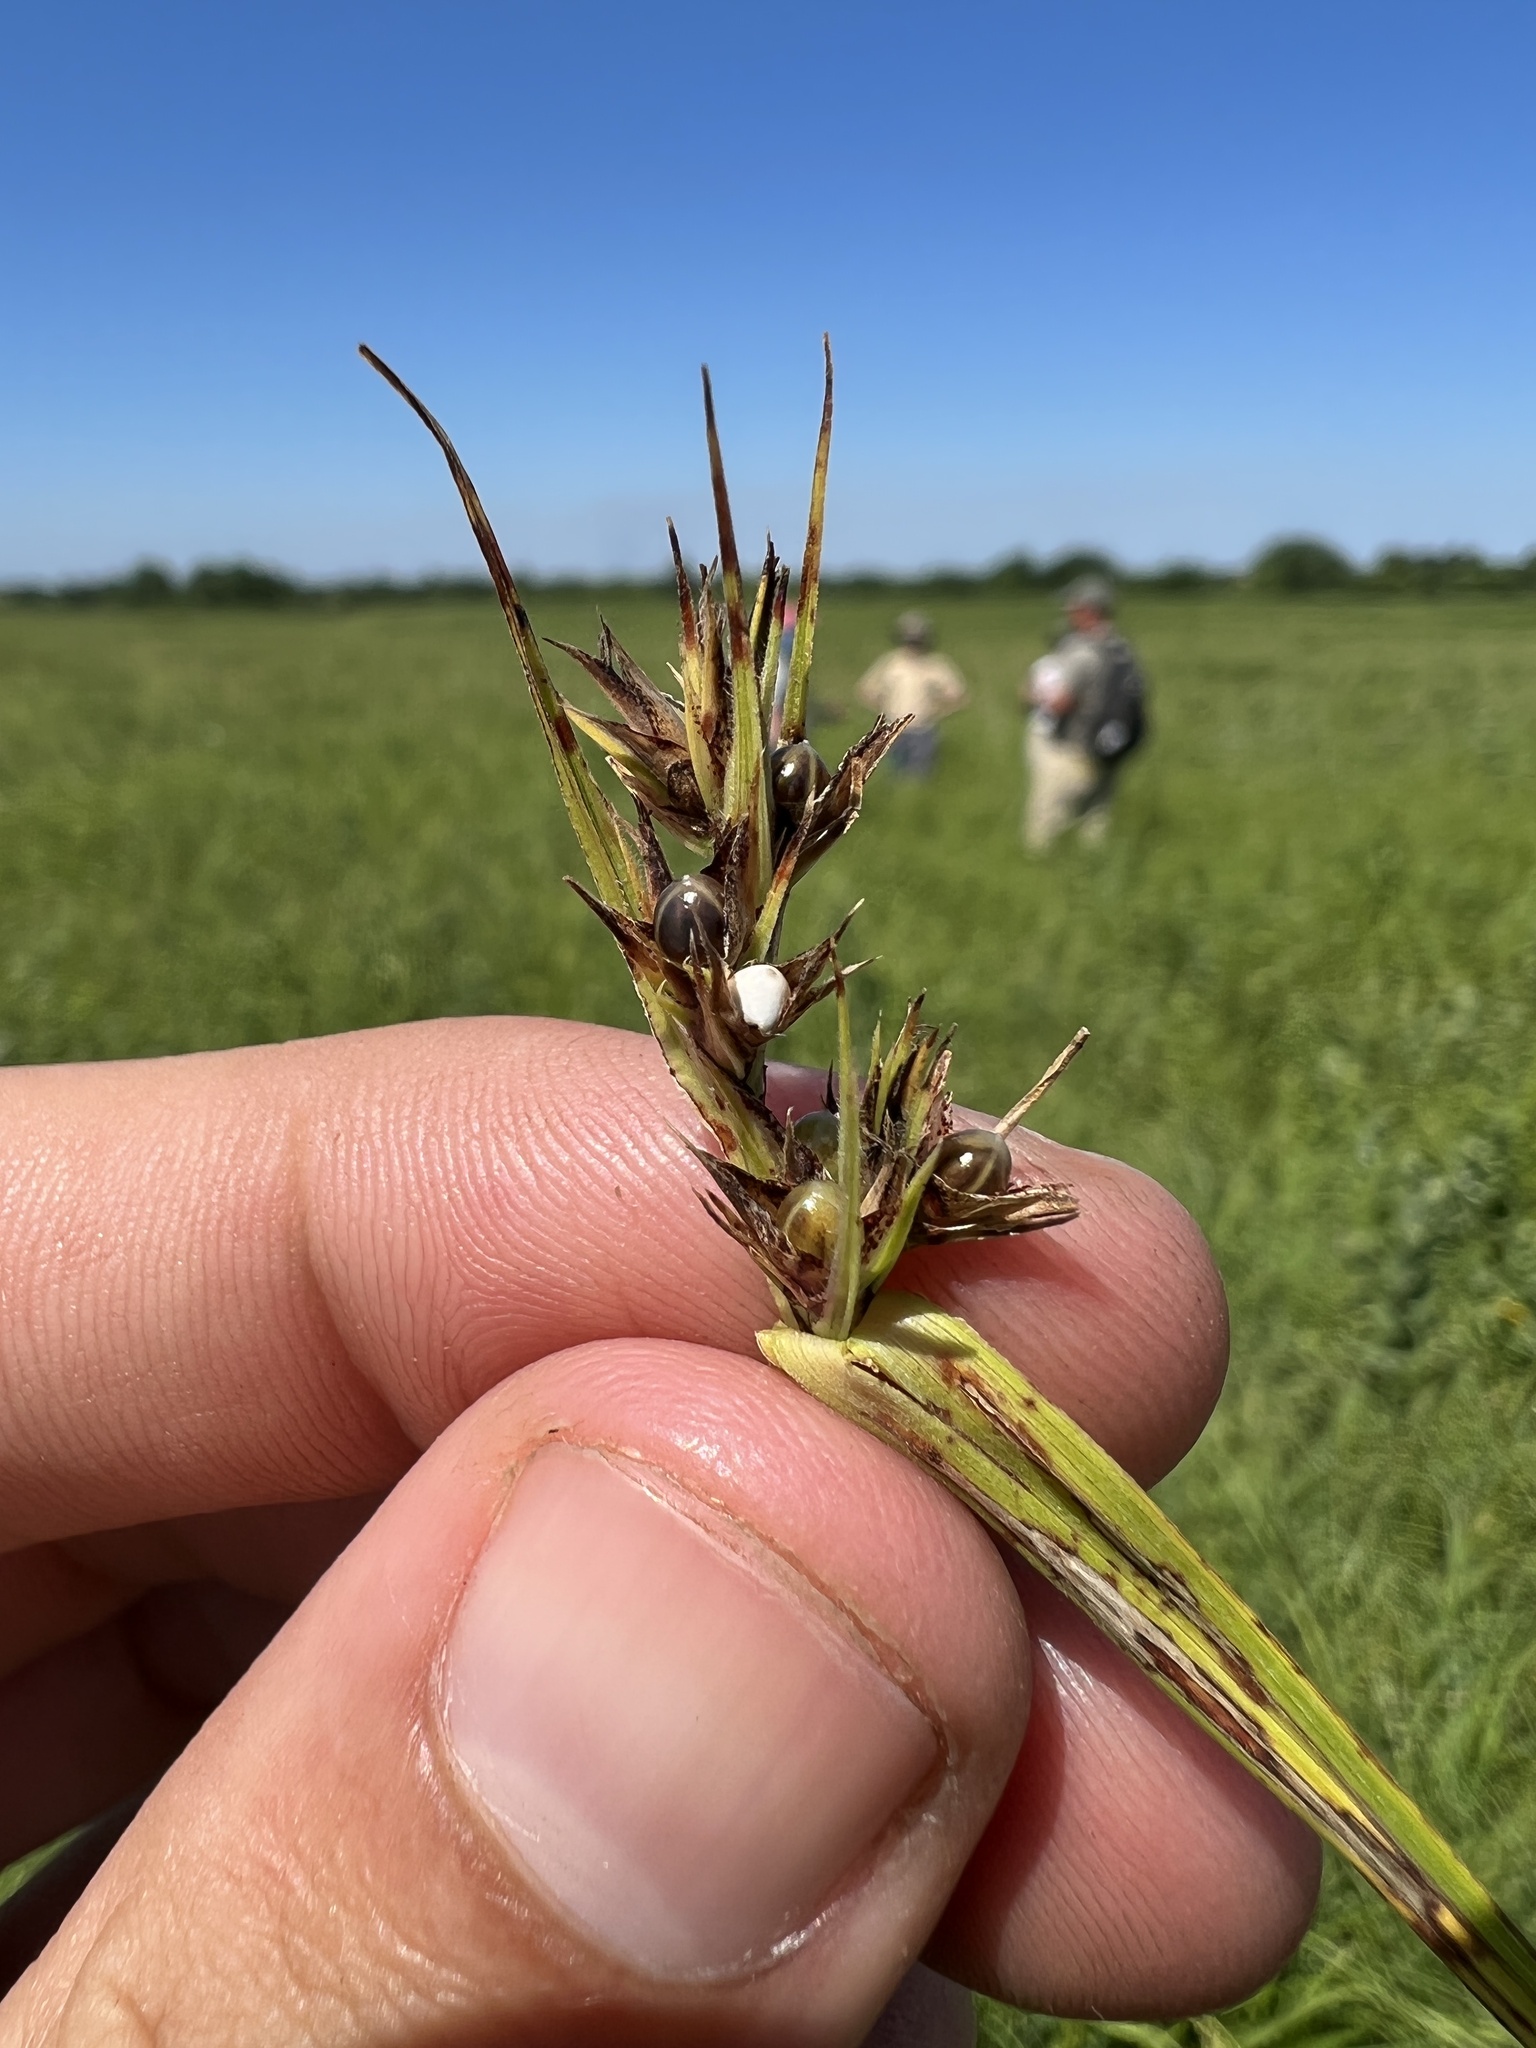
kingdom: Plantae
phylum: Tracheophyta
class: Liliopsida
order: Poales
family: Cyperaceae
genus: Scleria
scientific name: Scleria triglomerata
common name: Whip nutrush
